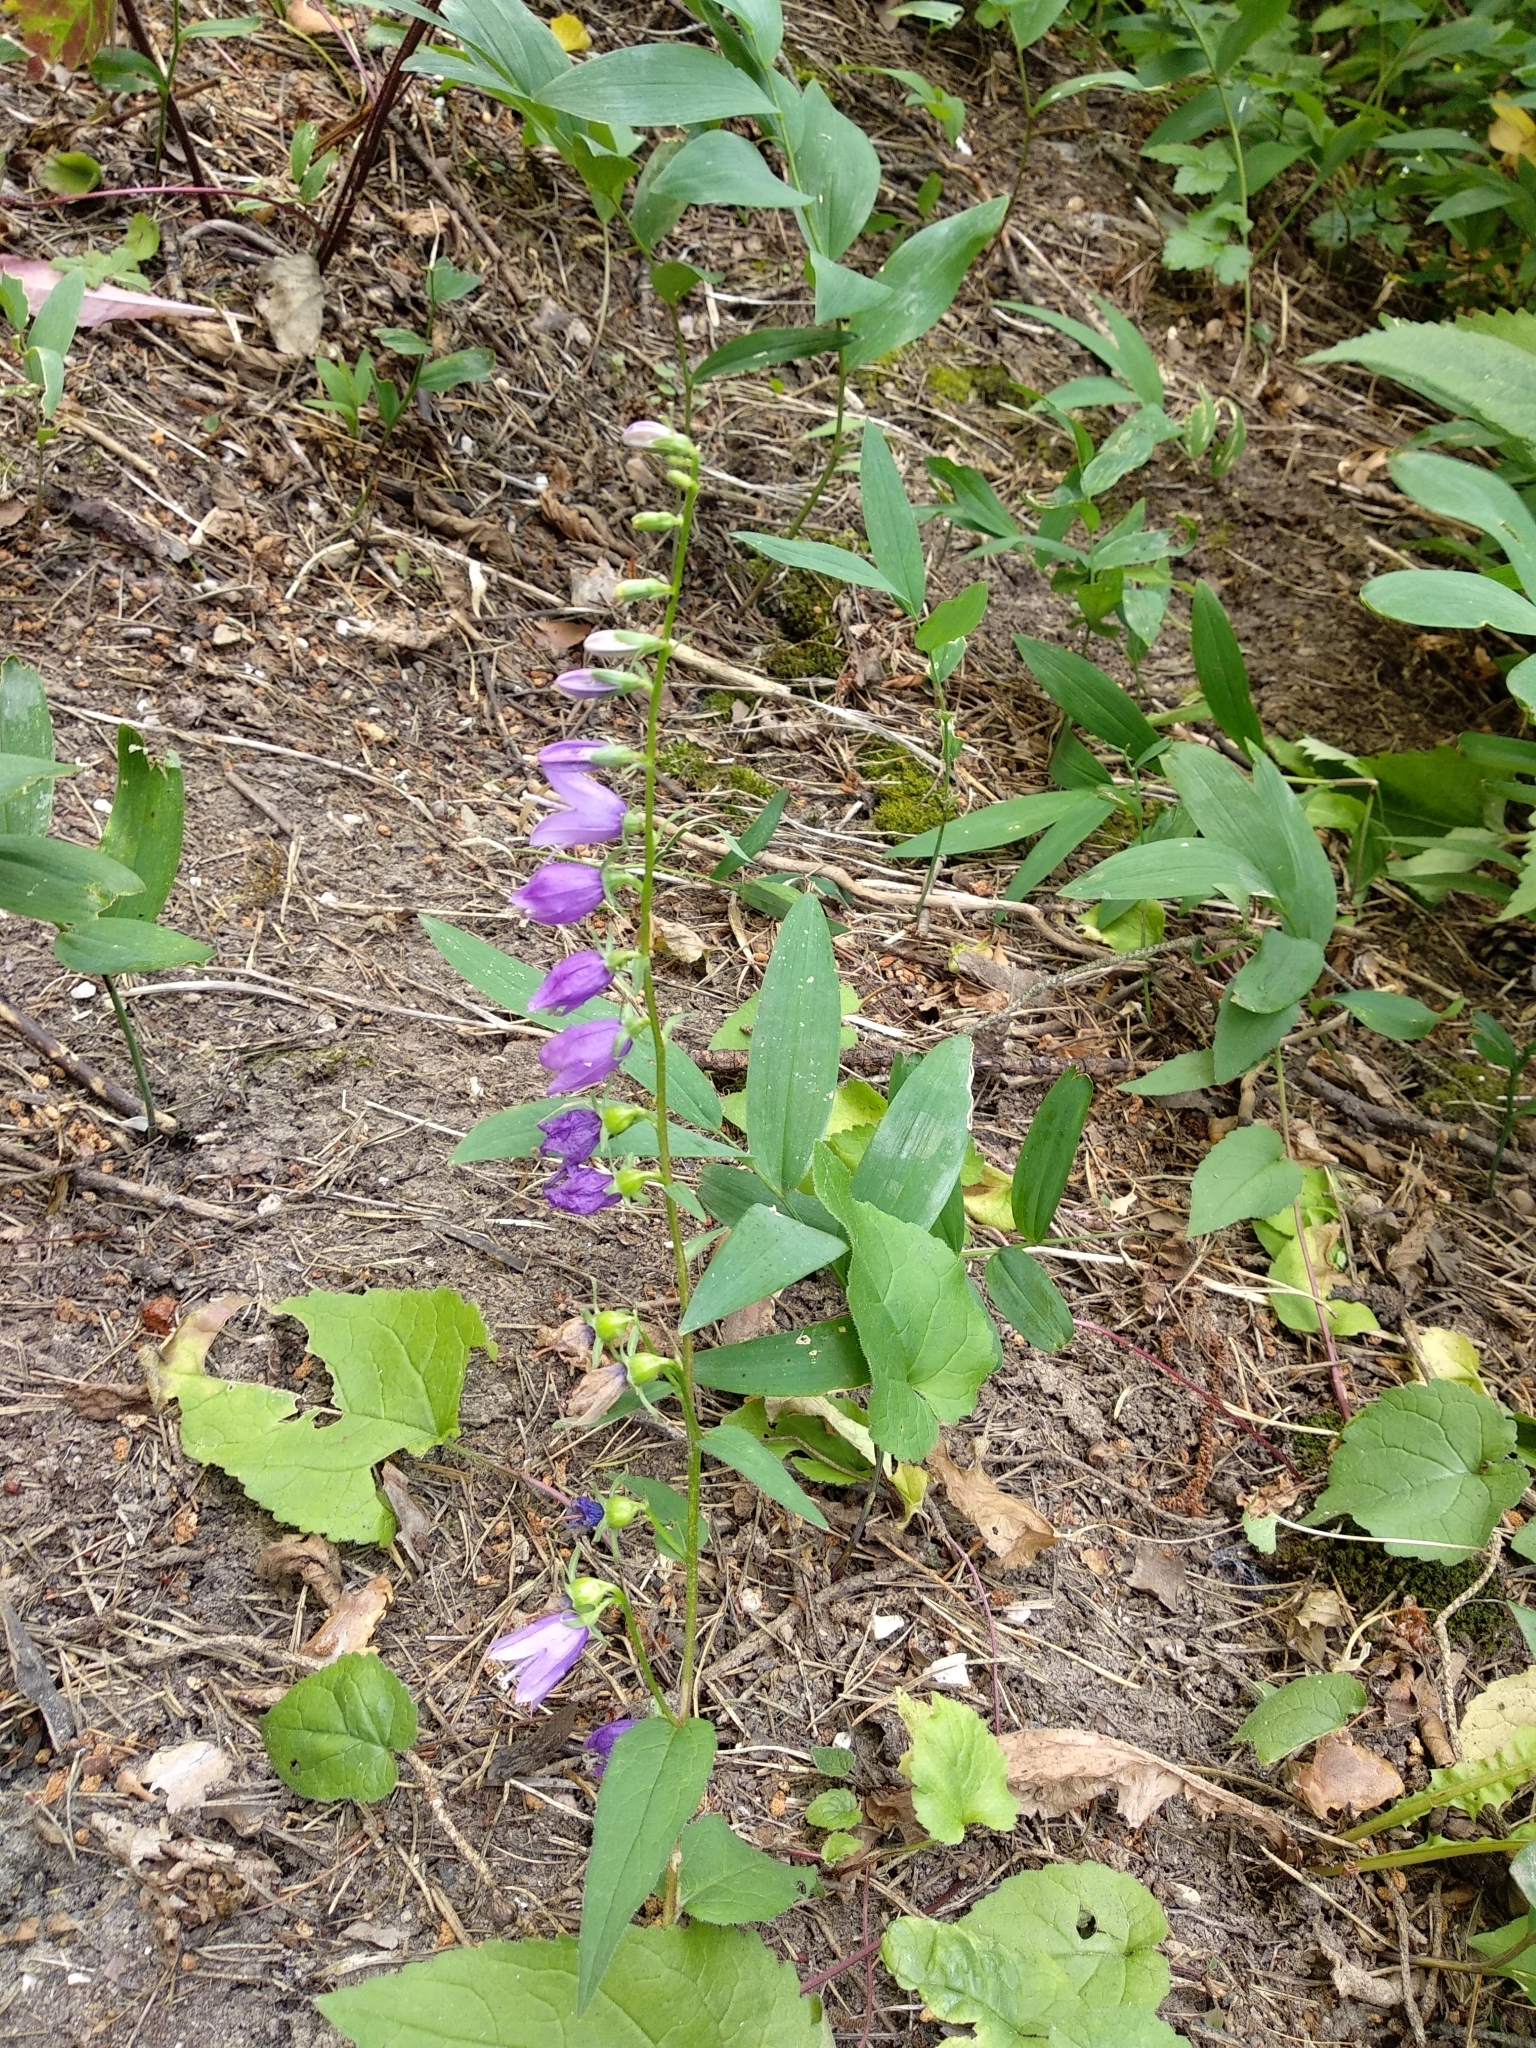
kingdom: Plantae
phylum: Tracheophyta
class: Magnoliopsida
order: Asterales
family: Campanulaceae
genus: Campanula
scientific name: Campanula rapunculoides
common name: Creeping bellflower
